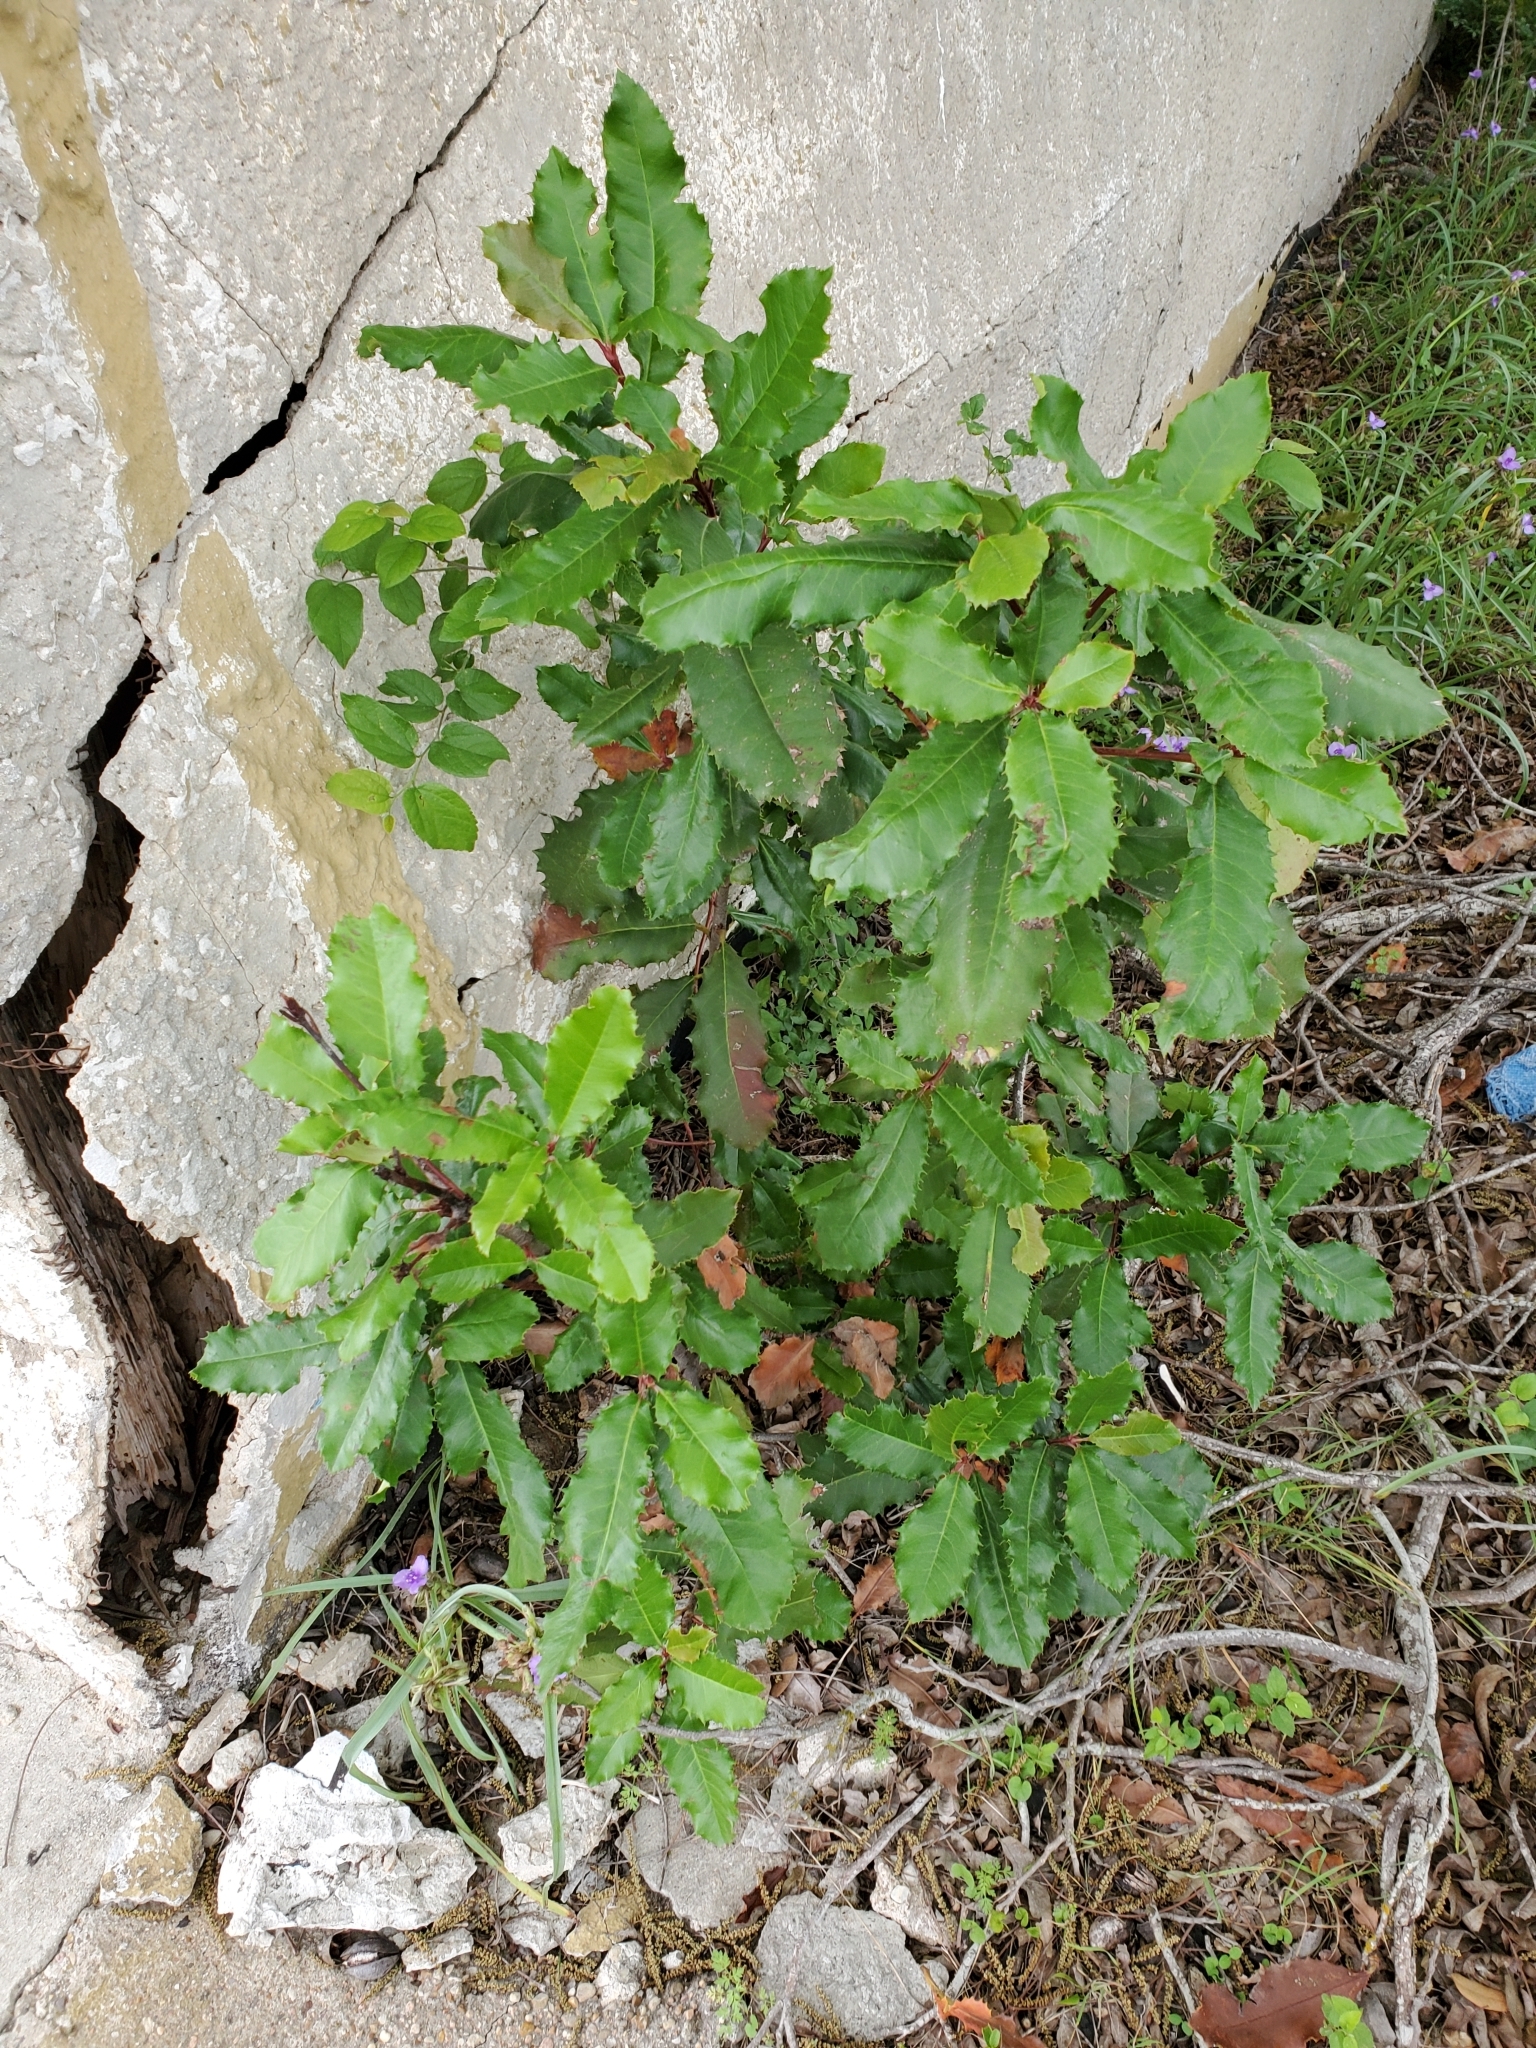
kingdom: Plantae
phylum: Tracheophyta
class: Magnoliopsida
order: Rosales
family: Rosaceae
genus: Photinia
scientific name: Photinia serratifolia
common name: Taiwanese photinia
